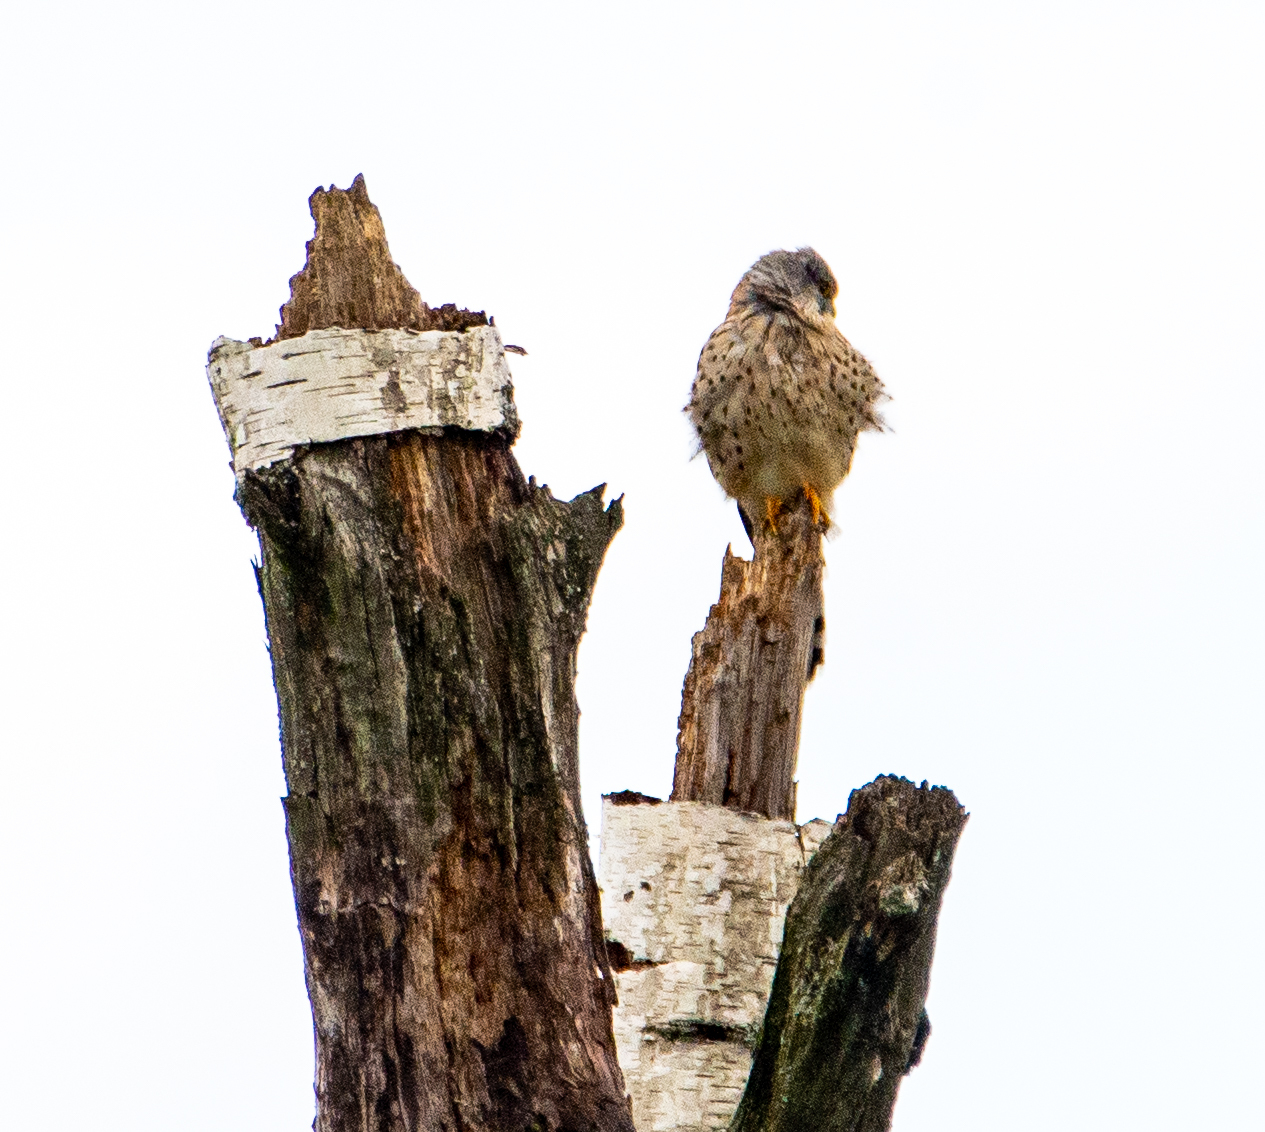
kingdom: Animalia
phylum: Chordata
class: Aves
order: Falconiformes
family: Falconidae
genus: Falco
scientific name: Falco tinnunculus
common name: Common kestrel
